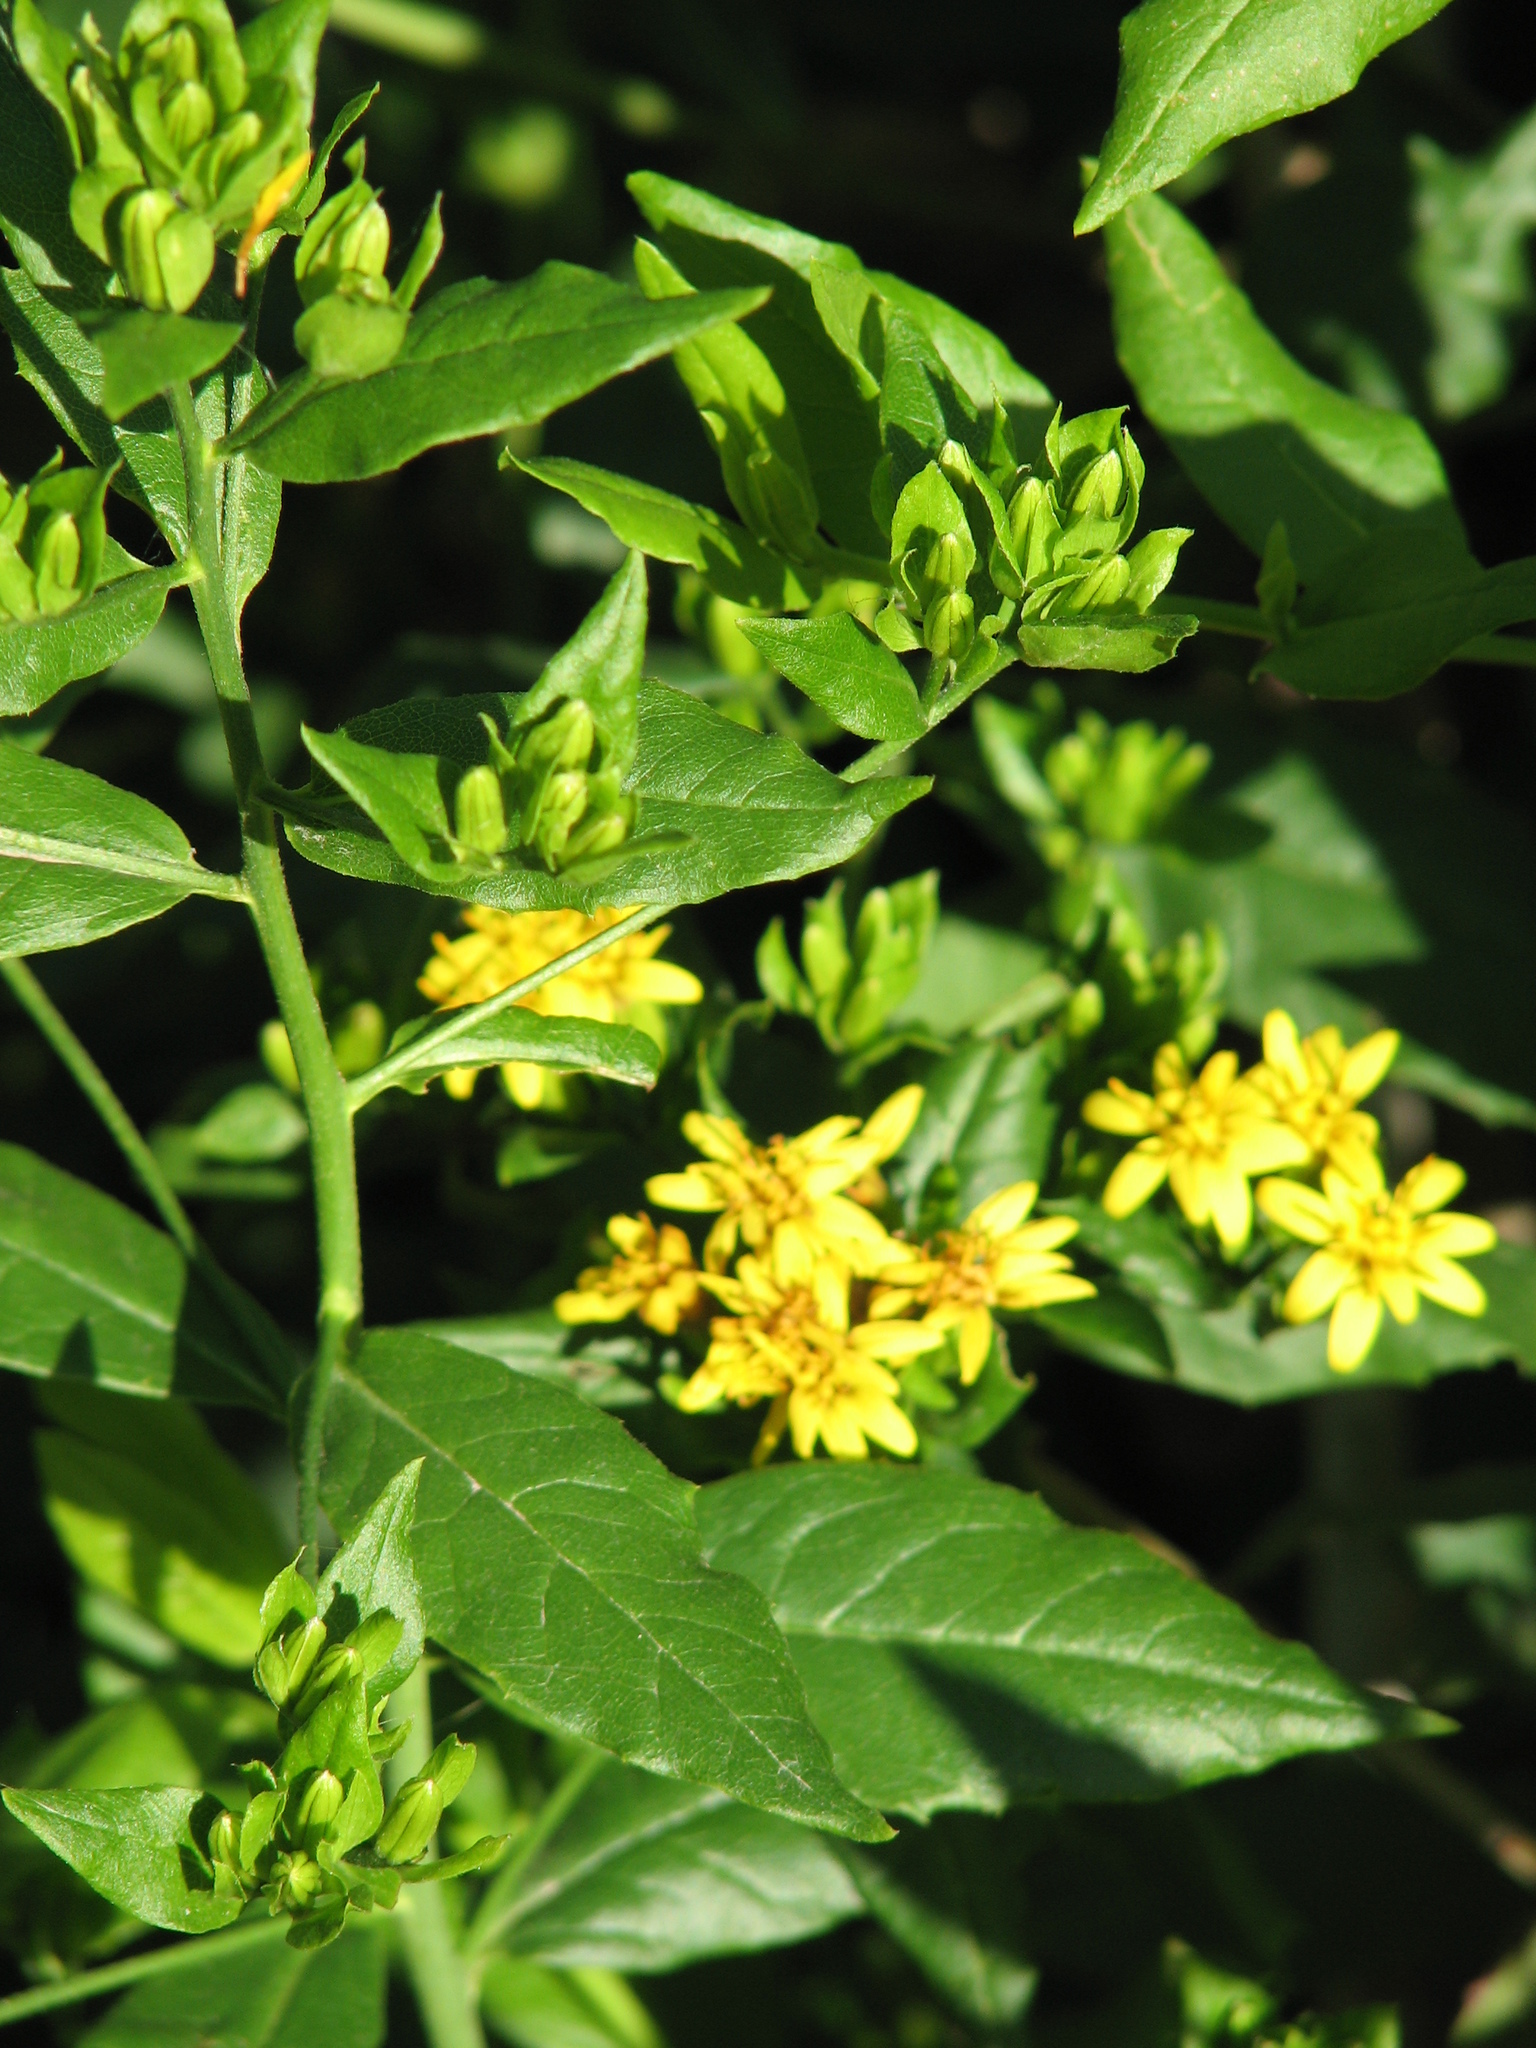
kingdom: Plantae
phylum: Tracheophyta
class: Magnoliopsida
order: Asterales
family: Asteraceae
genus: Trixis
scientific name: Trixis inula
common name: Tropical threefold
